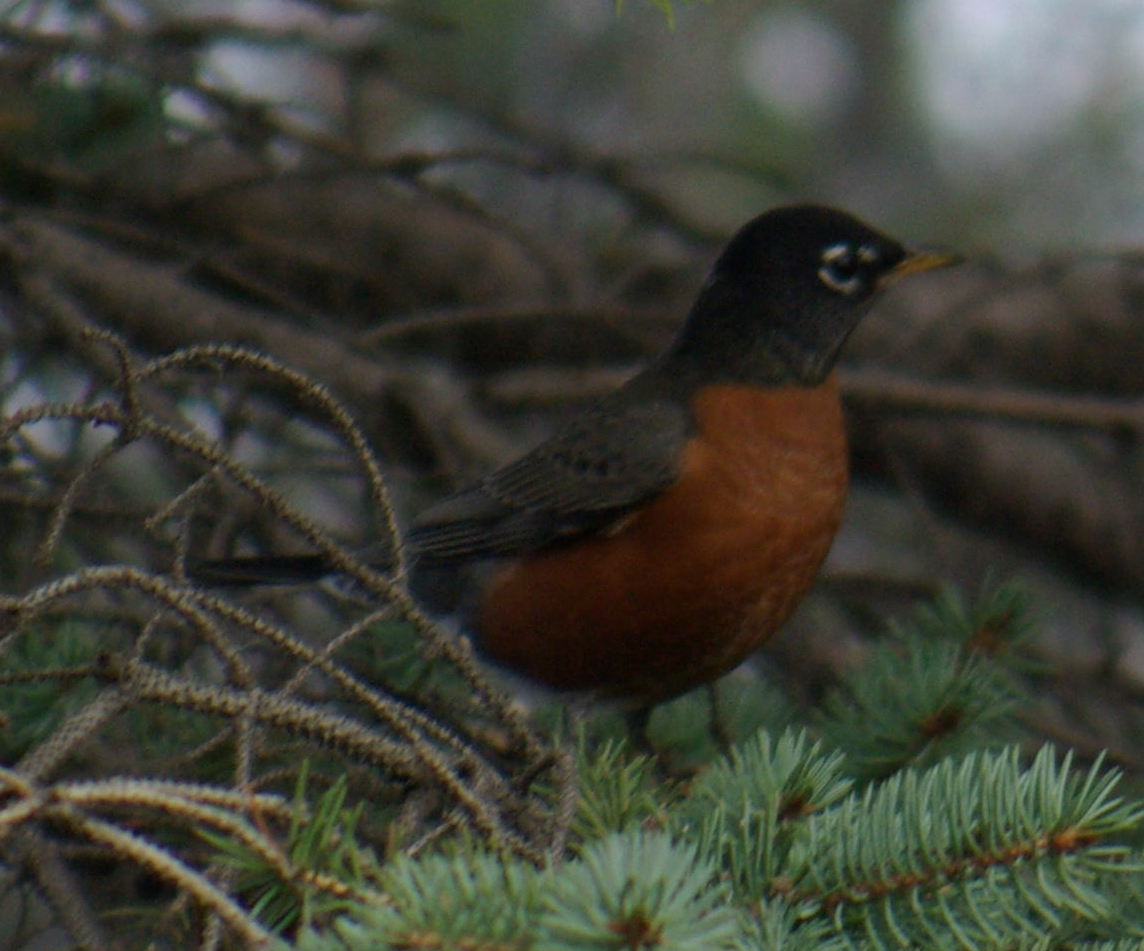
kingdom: Animalia
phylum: Chordata
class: Aves
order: Passeriformes
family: Turdidae
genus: Turdus
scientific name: Turdus migratorius
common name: American robin
